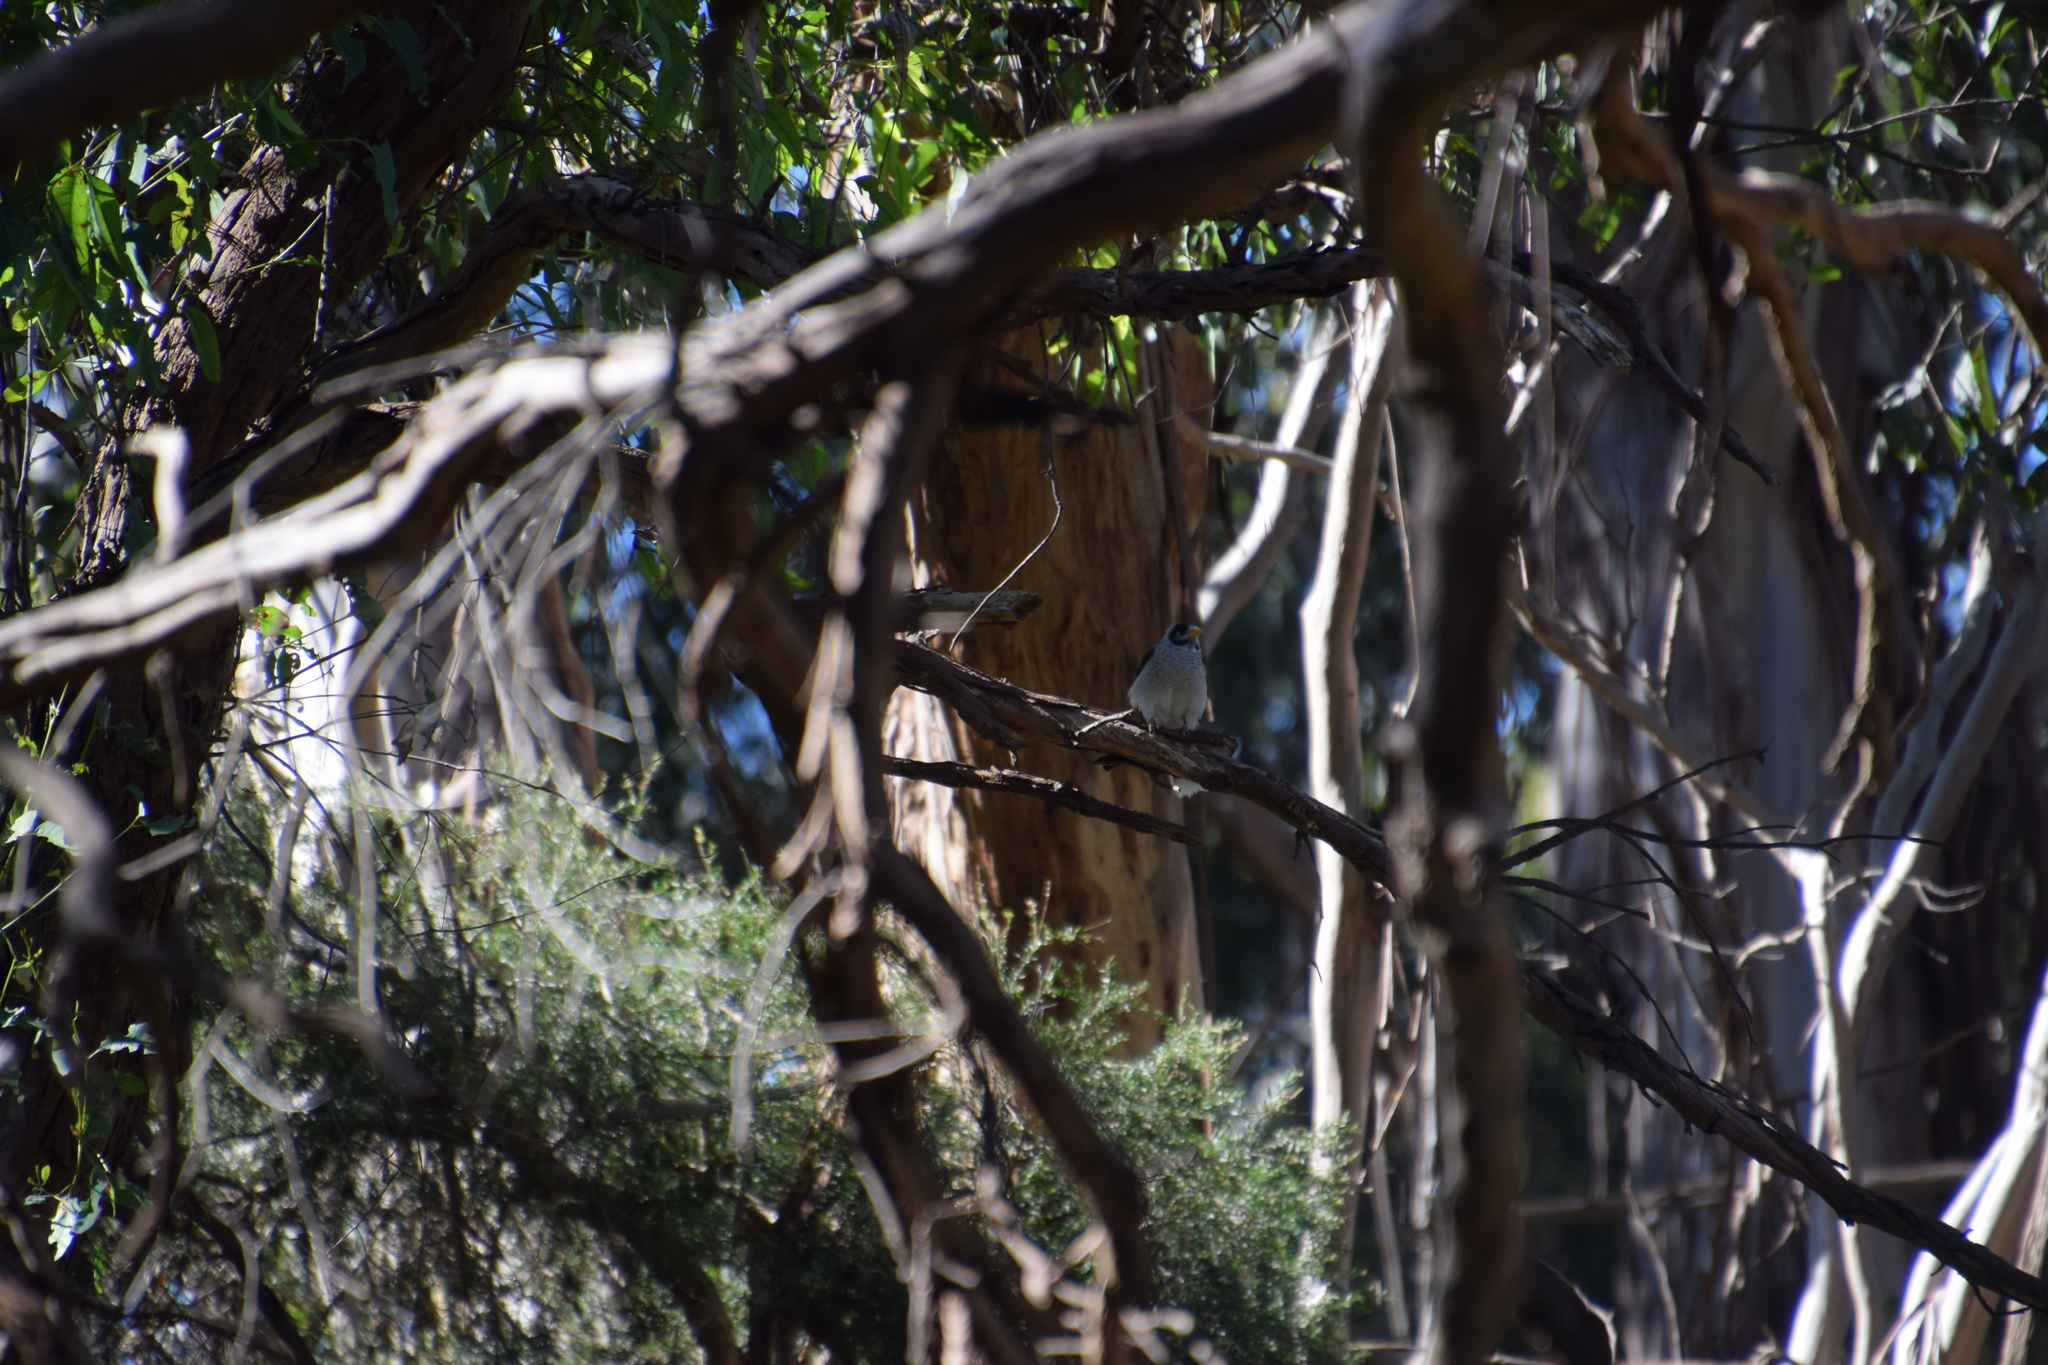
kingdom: Animalia
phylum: Chordata
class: Aves
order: Passeriformes
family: Meliphagidae
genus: Manorina
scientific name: Manorina melanocephala
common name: Noisy miner
